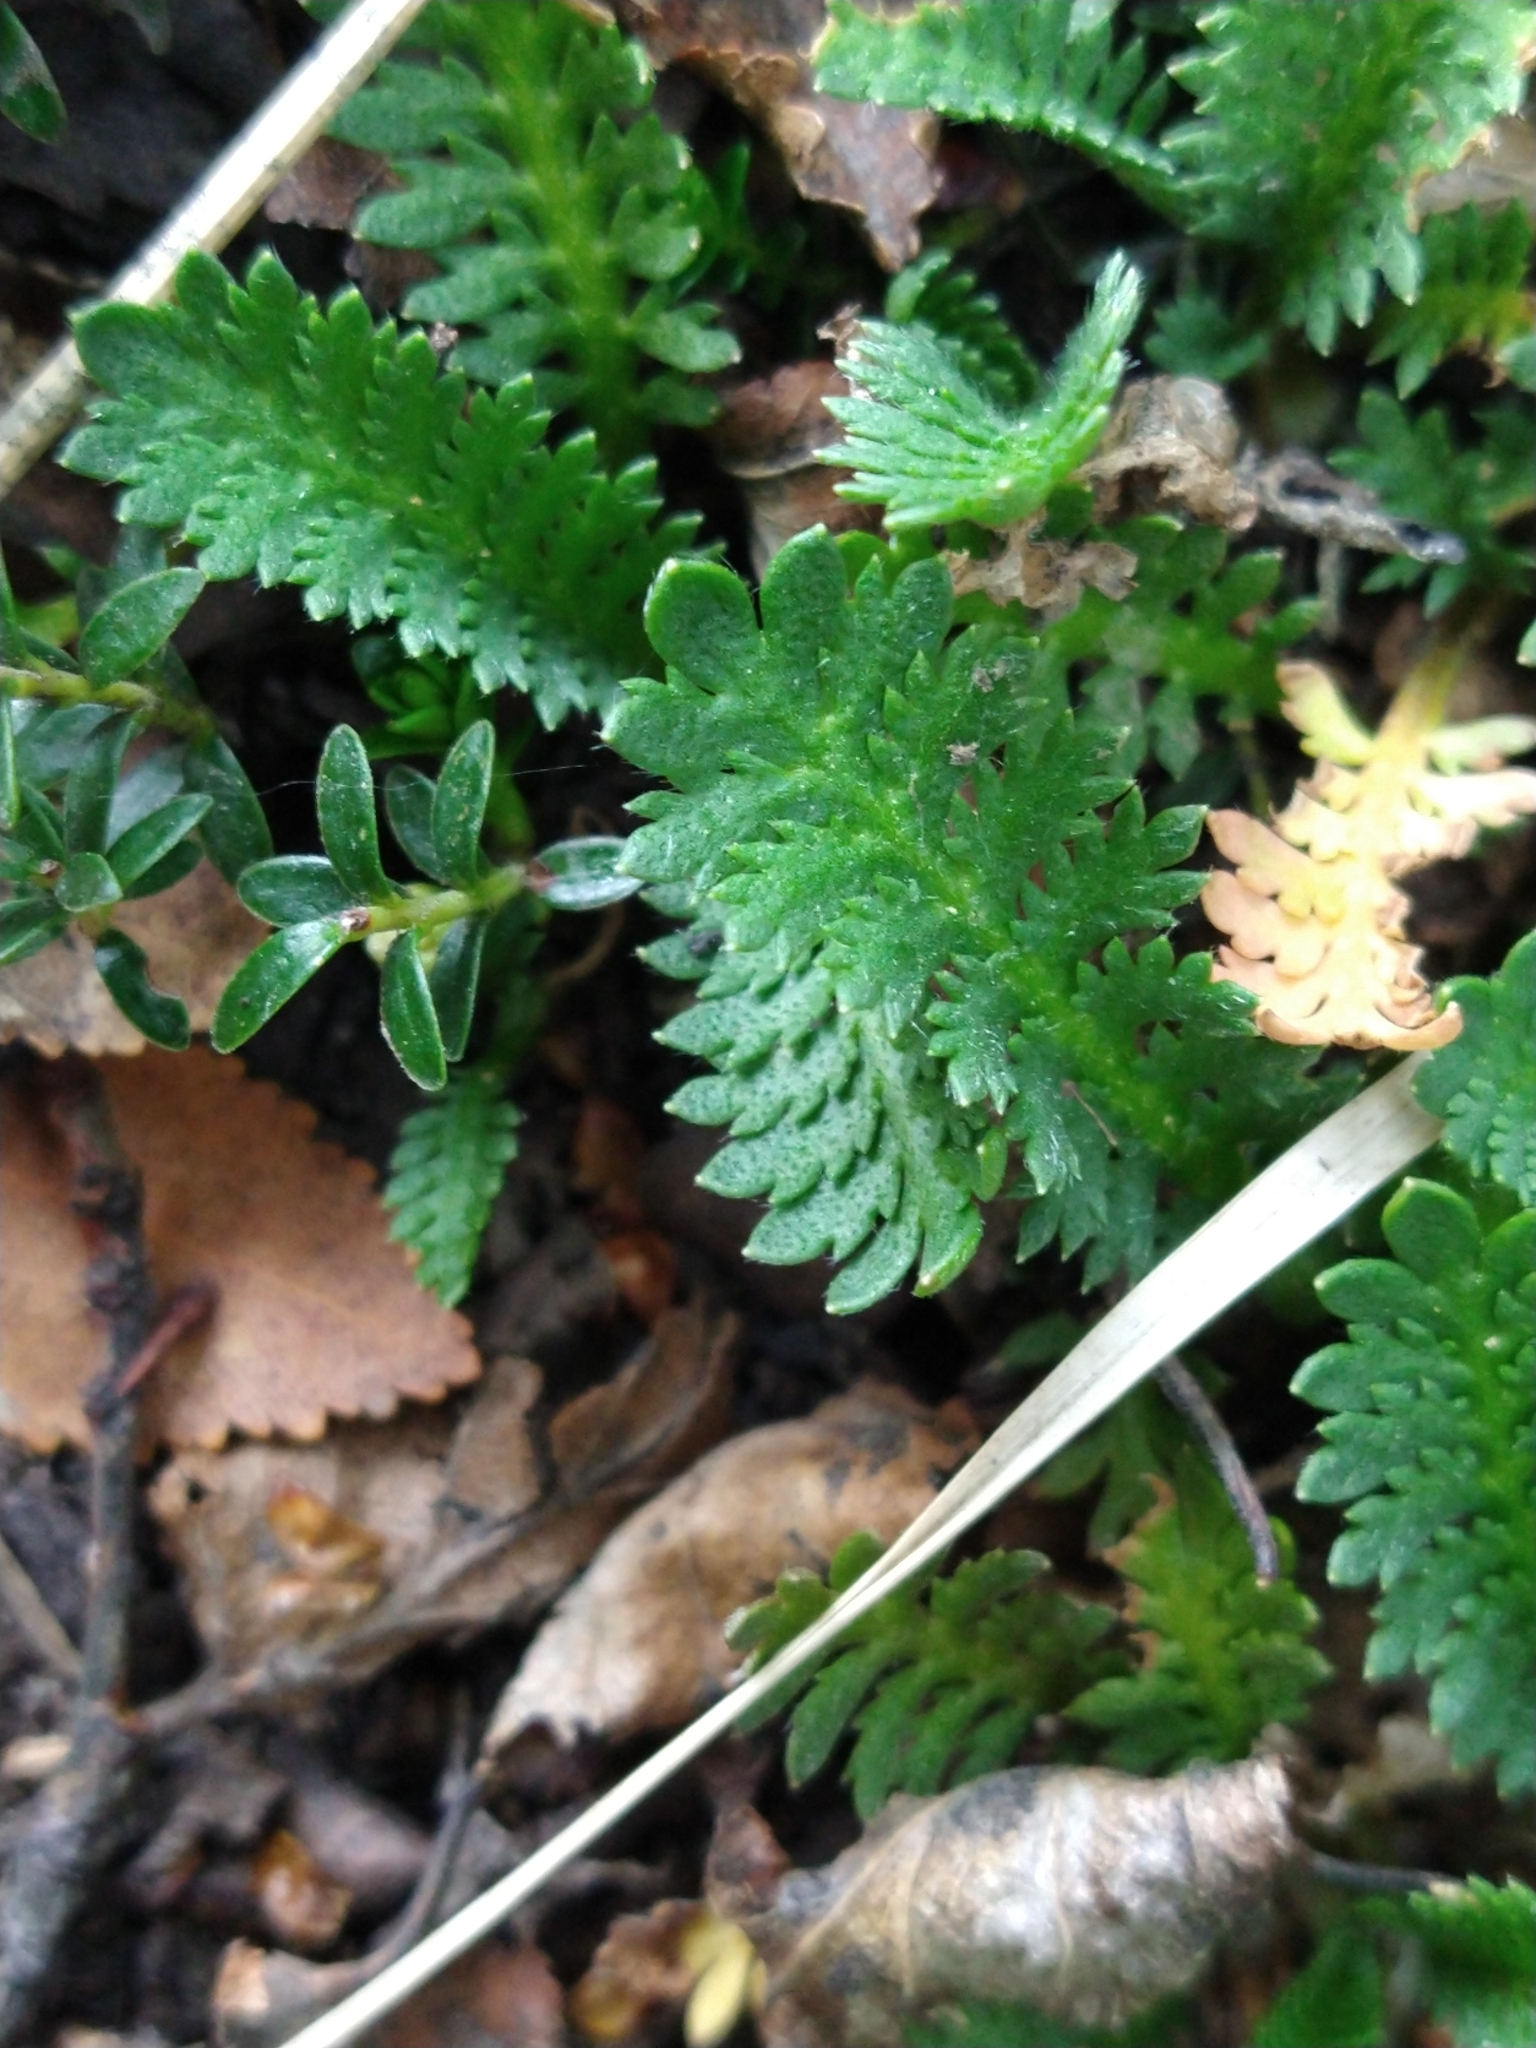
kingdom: Plantae
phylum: Tracheophyta
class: Magnoliopsida
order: Asterales
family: Asteraceae
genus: Leptinella
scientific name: Leptinella scariosa
